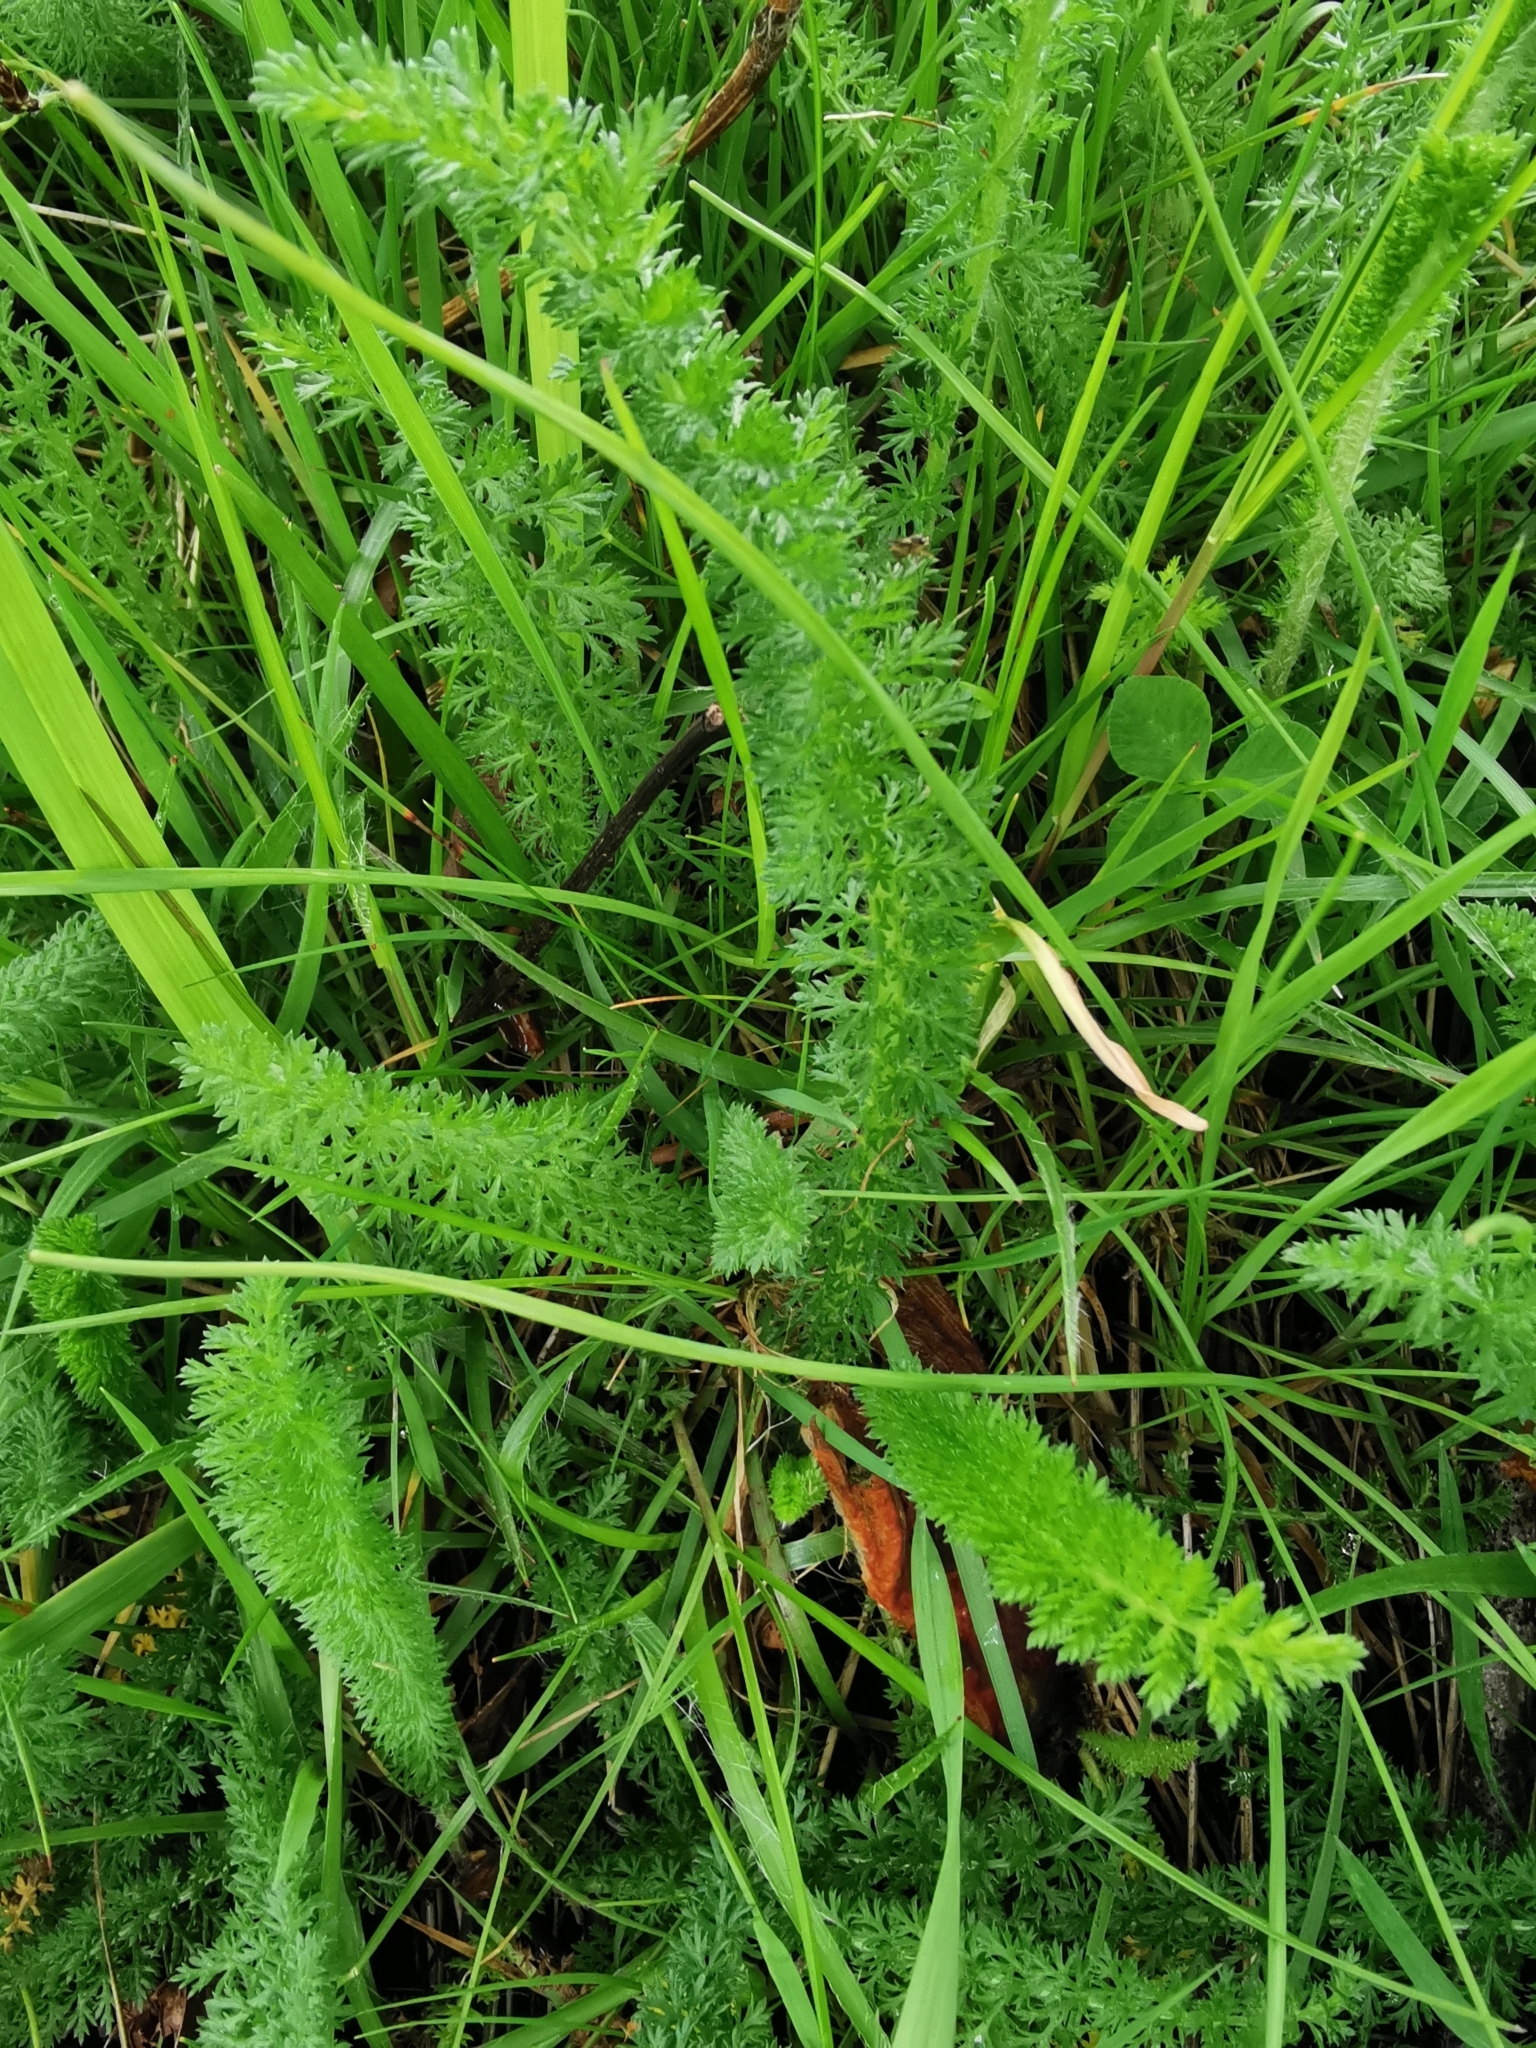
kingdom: Plantae
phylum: Tracheophyta
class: Magnoliopsida
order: Asterales
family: Asteraceae
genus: Achillea
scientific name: Achillea millefolium
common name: Yarrow
